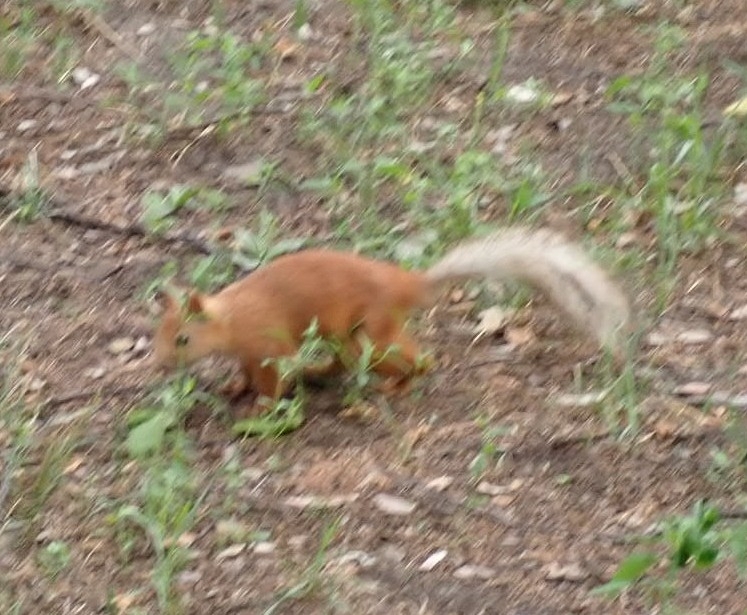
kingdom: Animalia
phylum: Chordata
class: Mammalia
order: Rodentia
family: Sciuridae
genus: Sciurus
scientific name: Sciurus vulgaris
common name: Eurasian red squirrel
